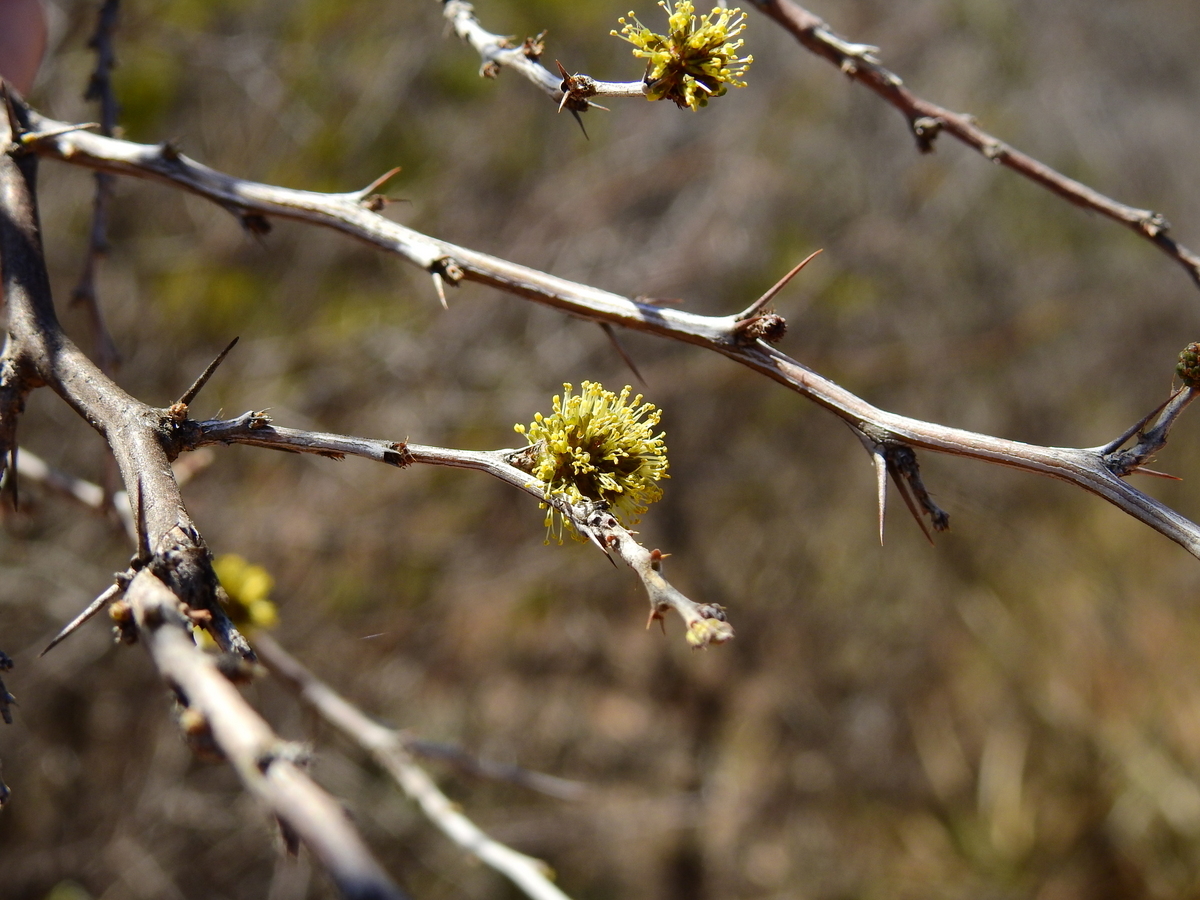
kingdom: Plantae
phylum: Tracheophyta
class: Magnoliopsida
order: Fabales
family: Fabaceae
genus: Mimozyganthus
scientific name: Mimozyganthus carinatus
